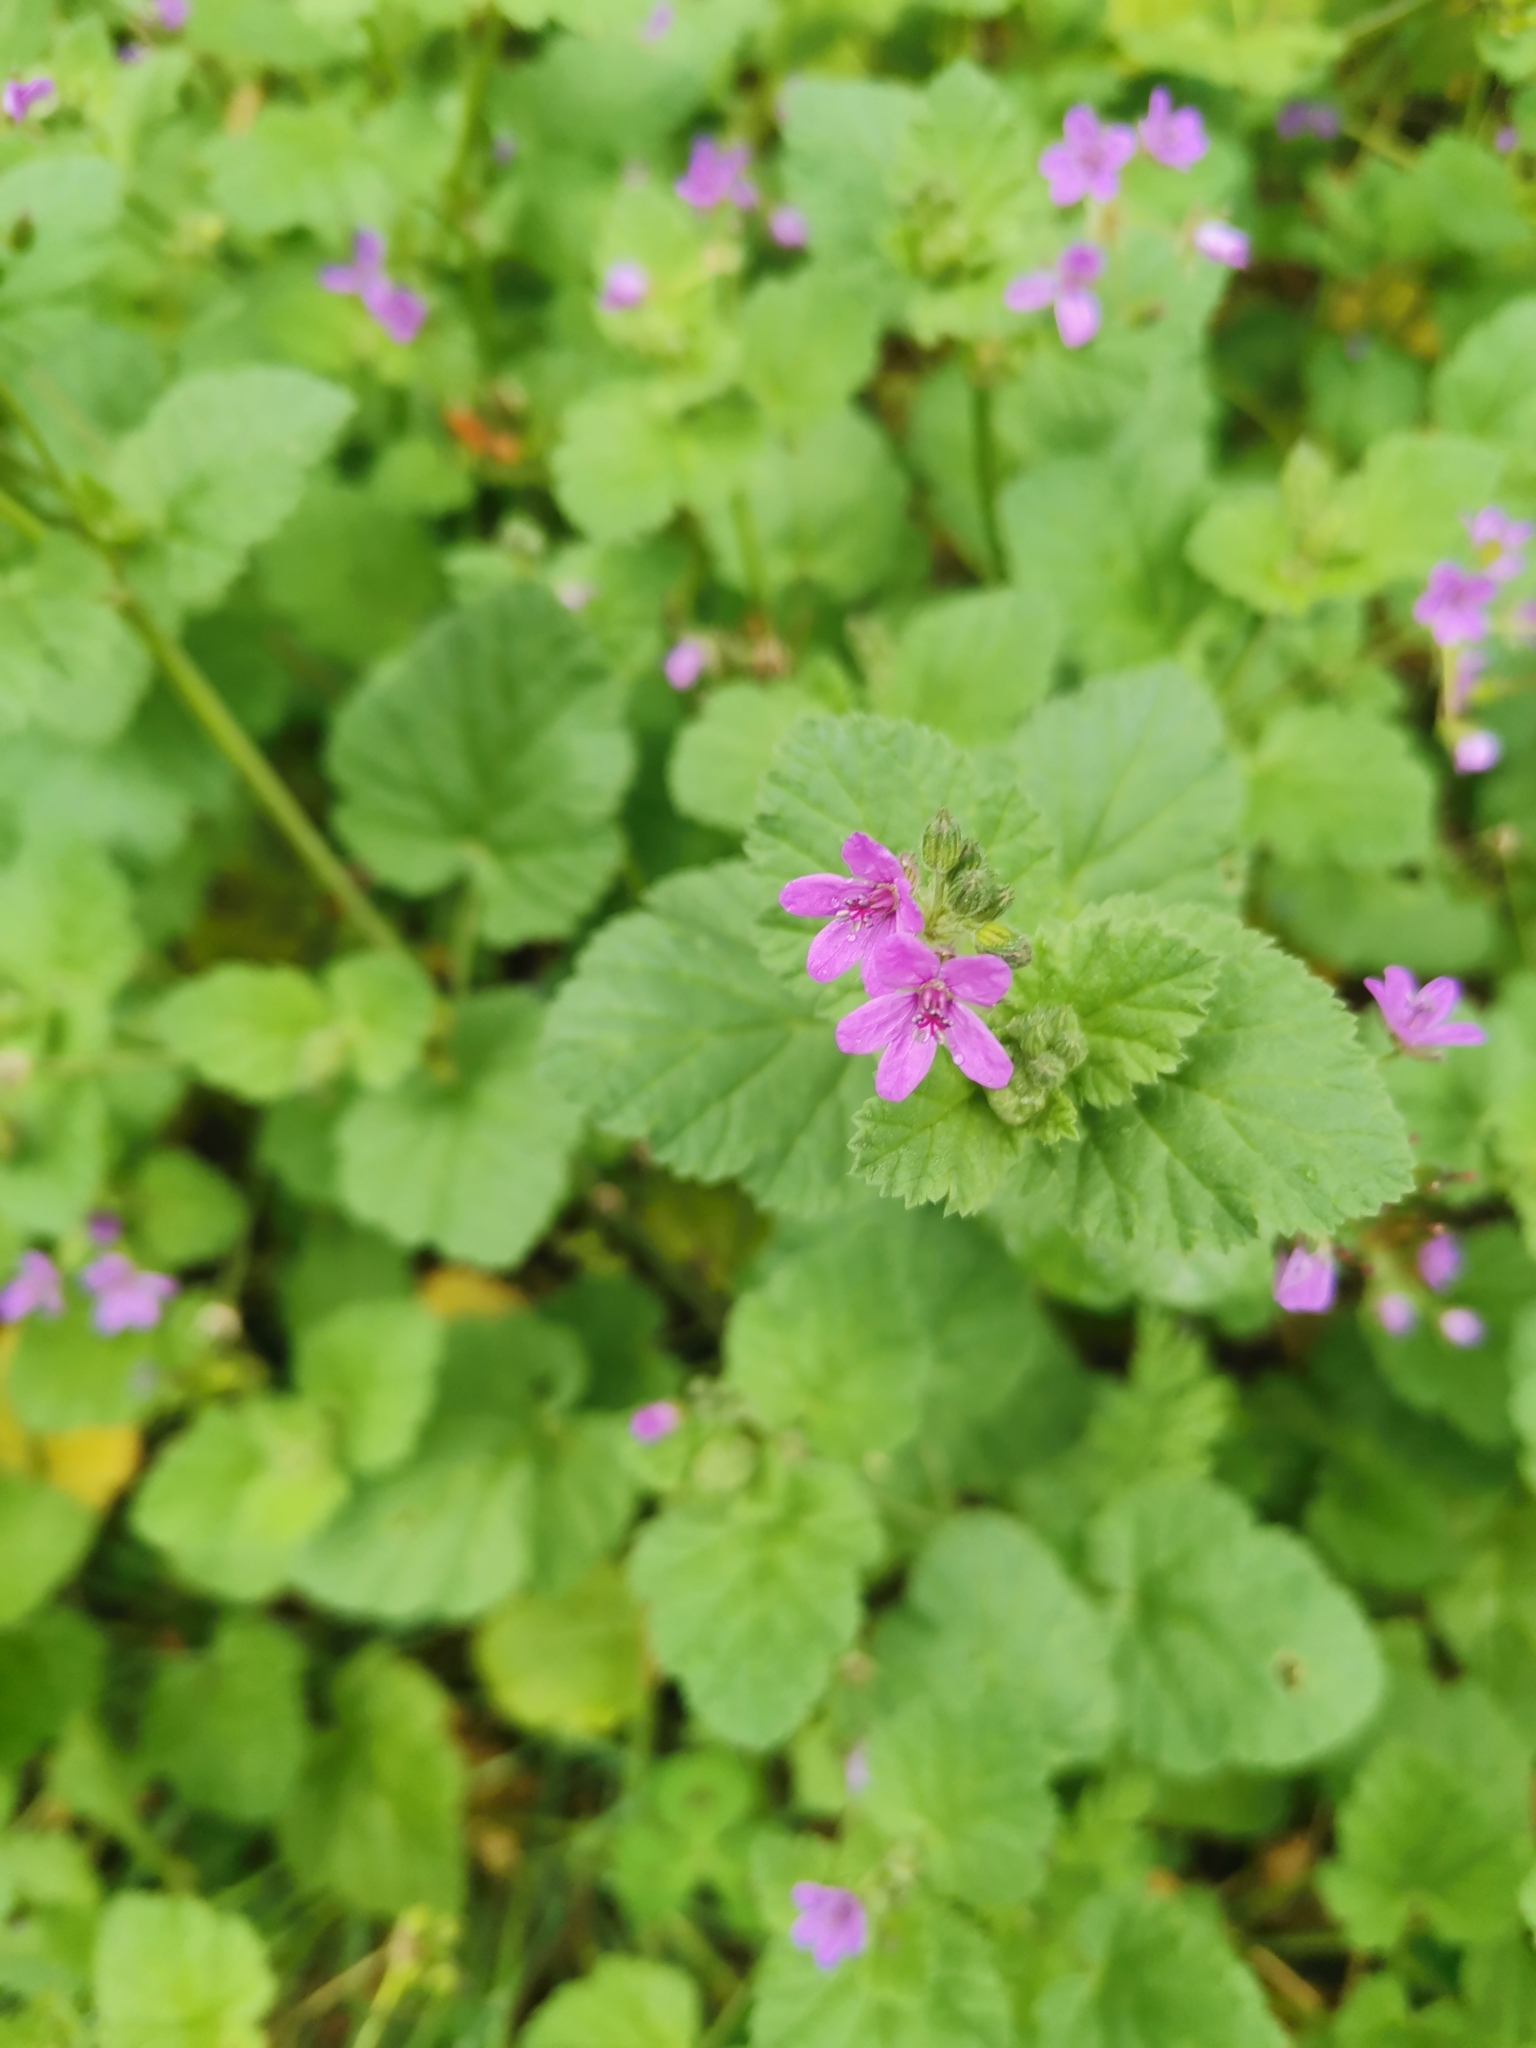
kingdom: Plantae
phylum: Tracheophyta
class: Magnoliopsida
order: Geraniales
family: Geraniaceae
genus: Erodium
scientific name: Erodium malacoides
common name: Soft stork's-bill
